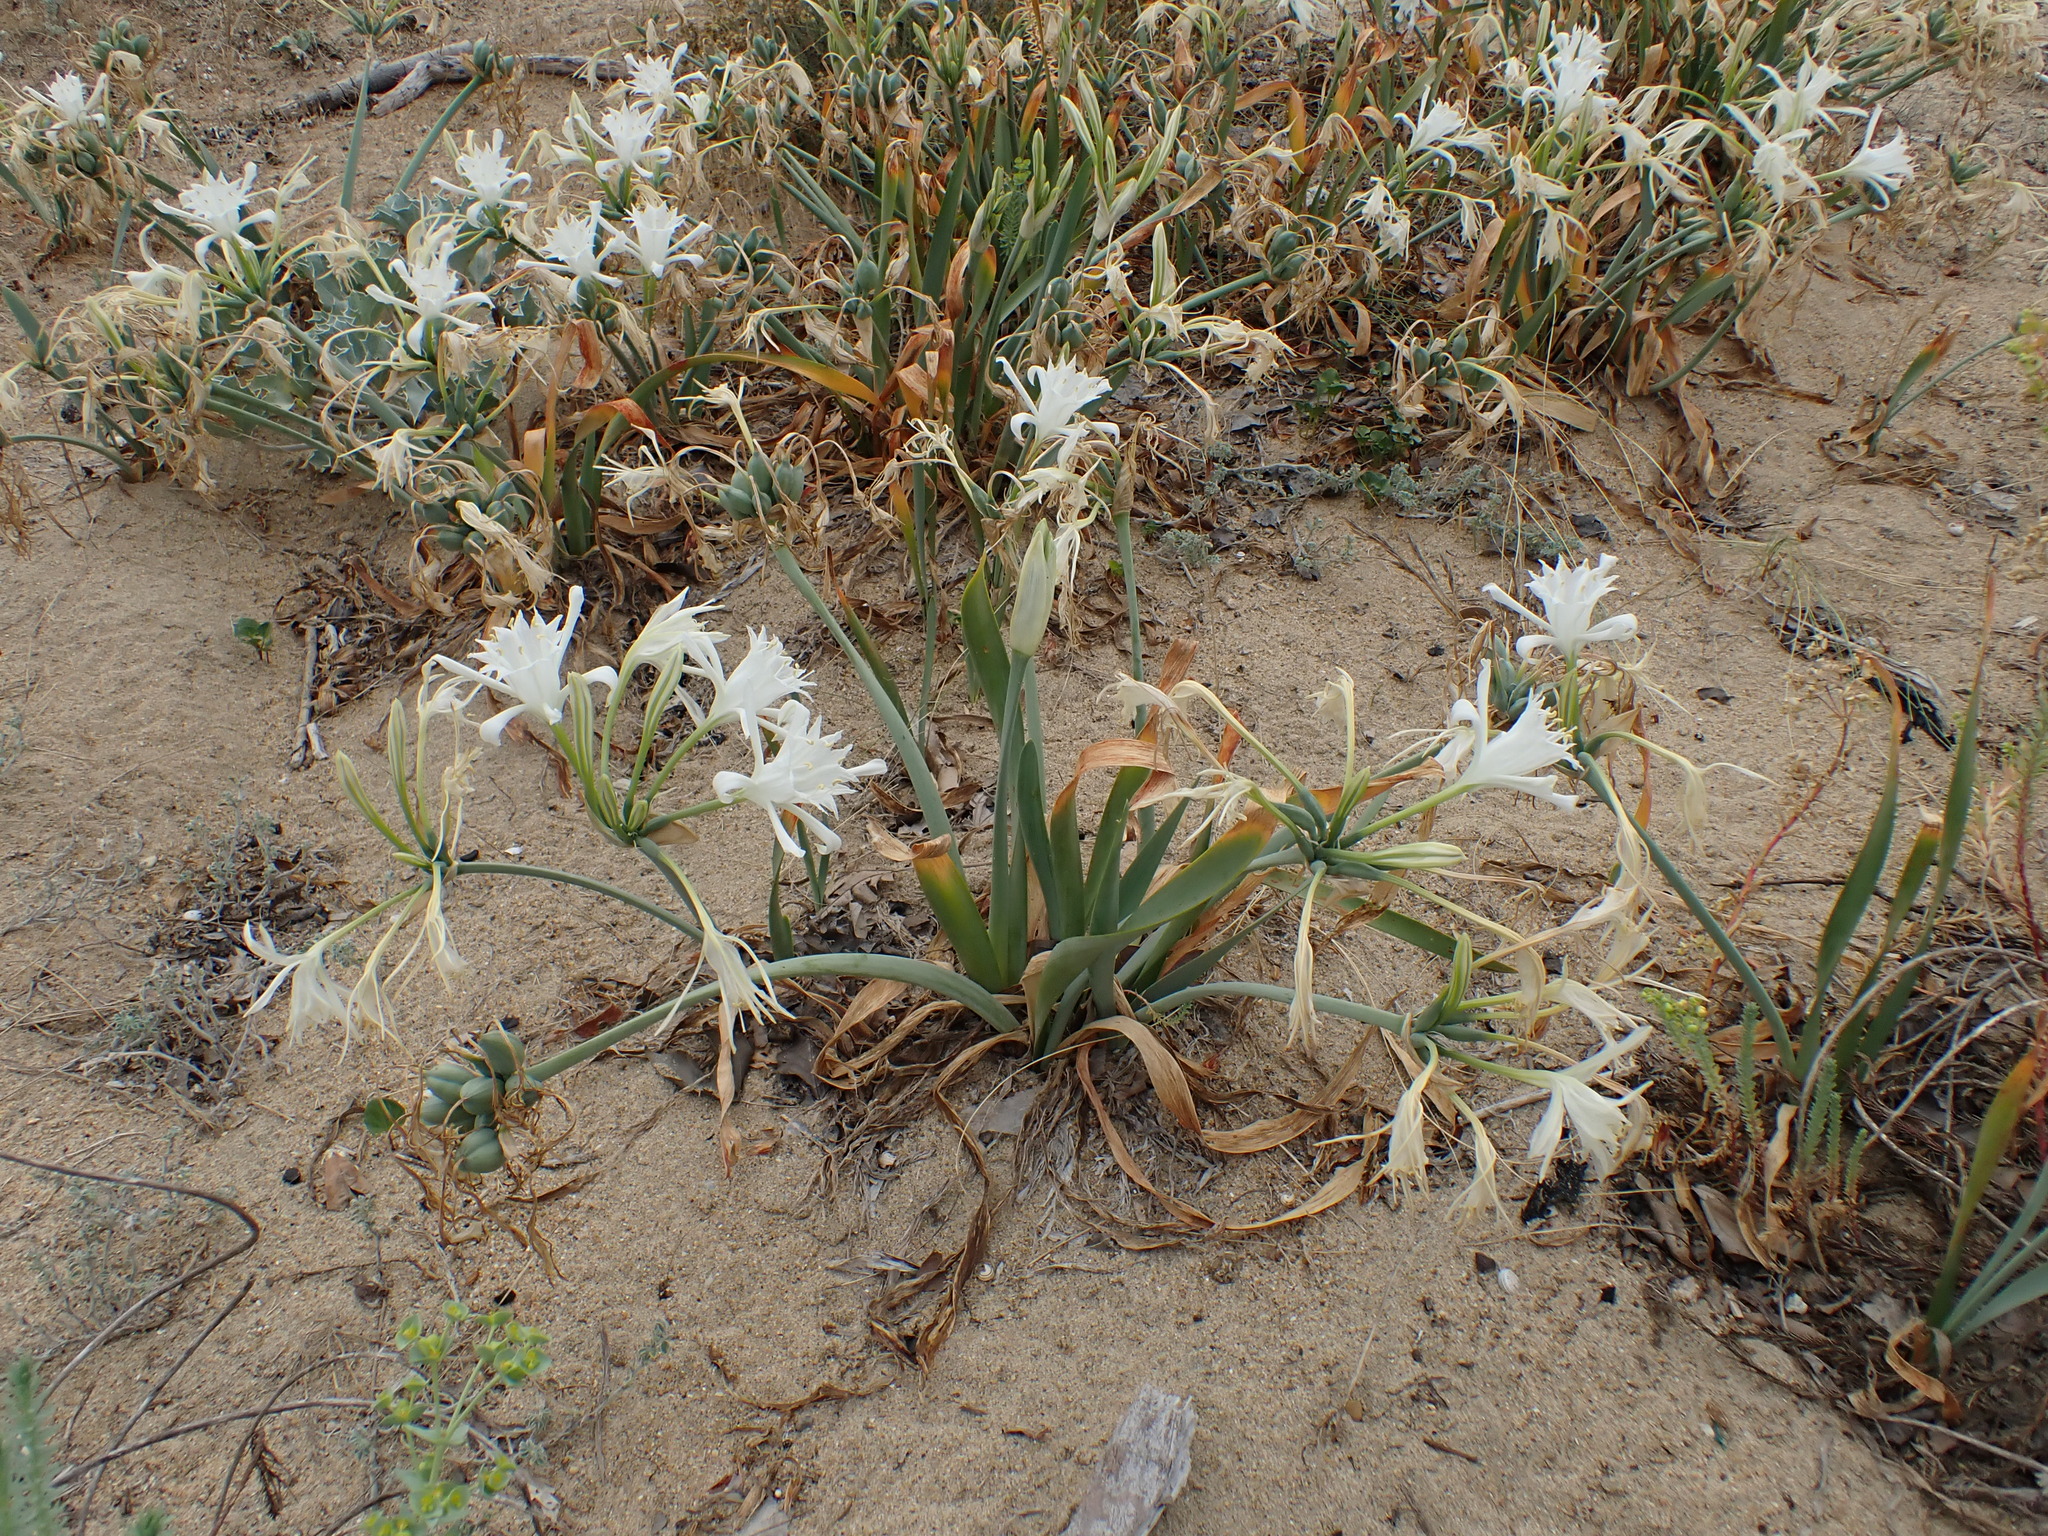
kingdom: Plantae
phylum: Tracheophyta
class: Liliopsida
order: Asparagales
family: Amaryllidaceae
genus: Pancratium
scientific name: Pancratium maritimum
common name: Sea-daffodil
